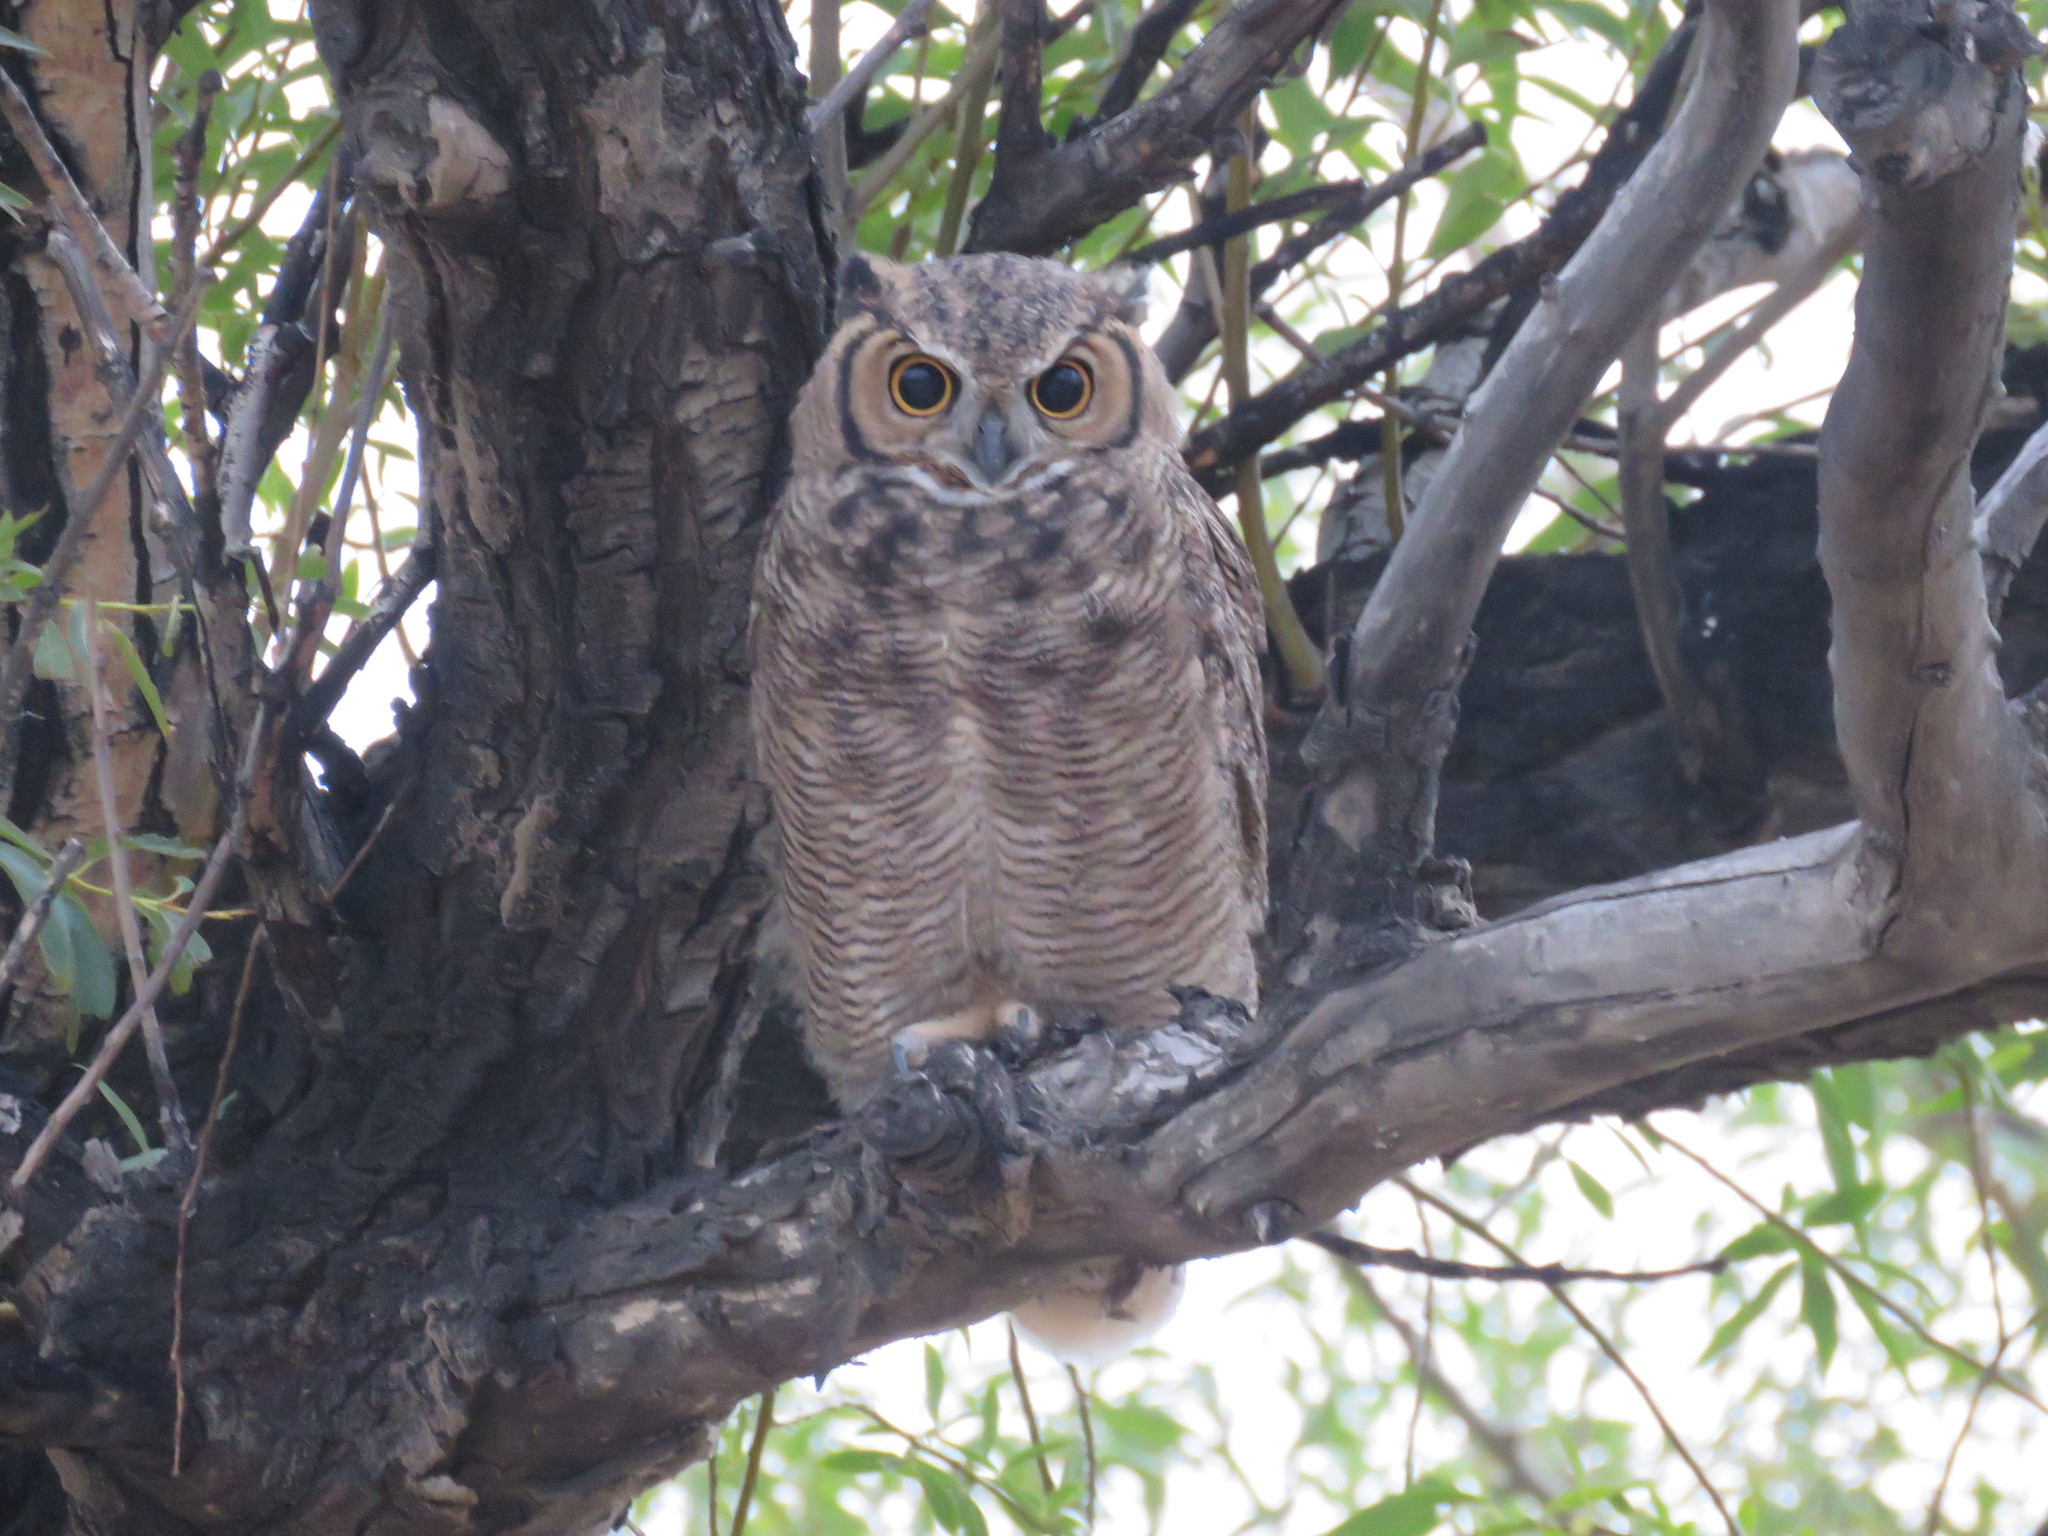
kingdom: Animalia
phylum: Chordata
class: Aves
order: Strigiformes
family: Strigidae
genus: Bubo
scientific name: Bubo magellanicus
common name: Lesser horned owl
